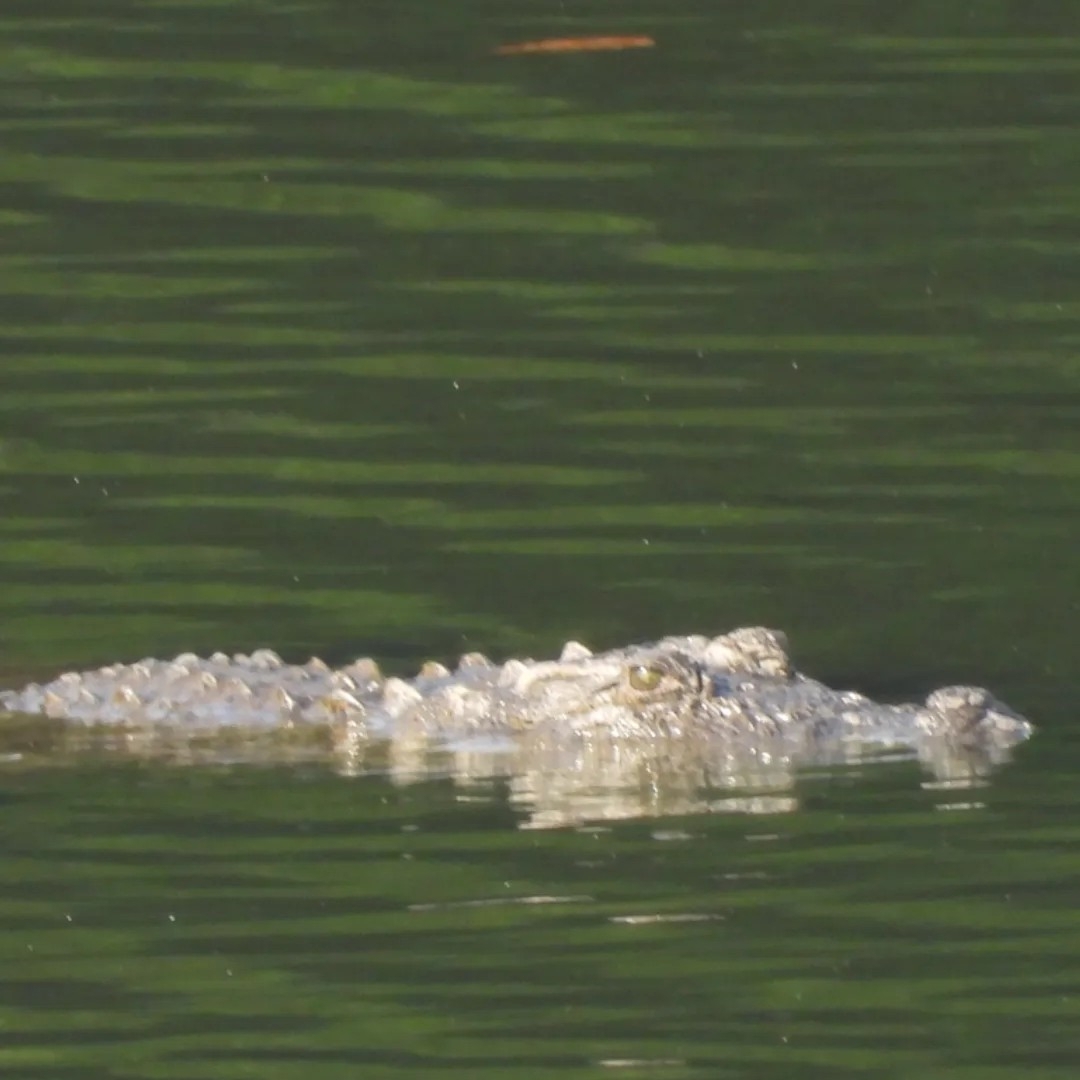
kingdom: Animalia
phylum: Chordata
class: Crocodylia
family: Crocodylidae
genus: Crocodylus
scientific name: Crocodylus palustris
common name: Mugger crocodile
